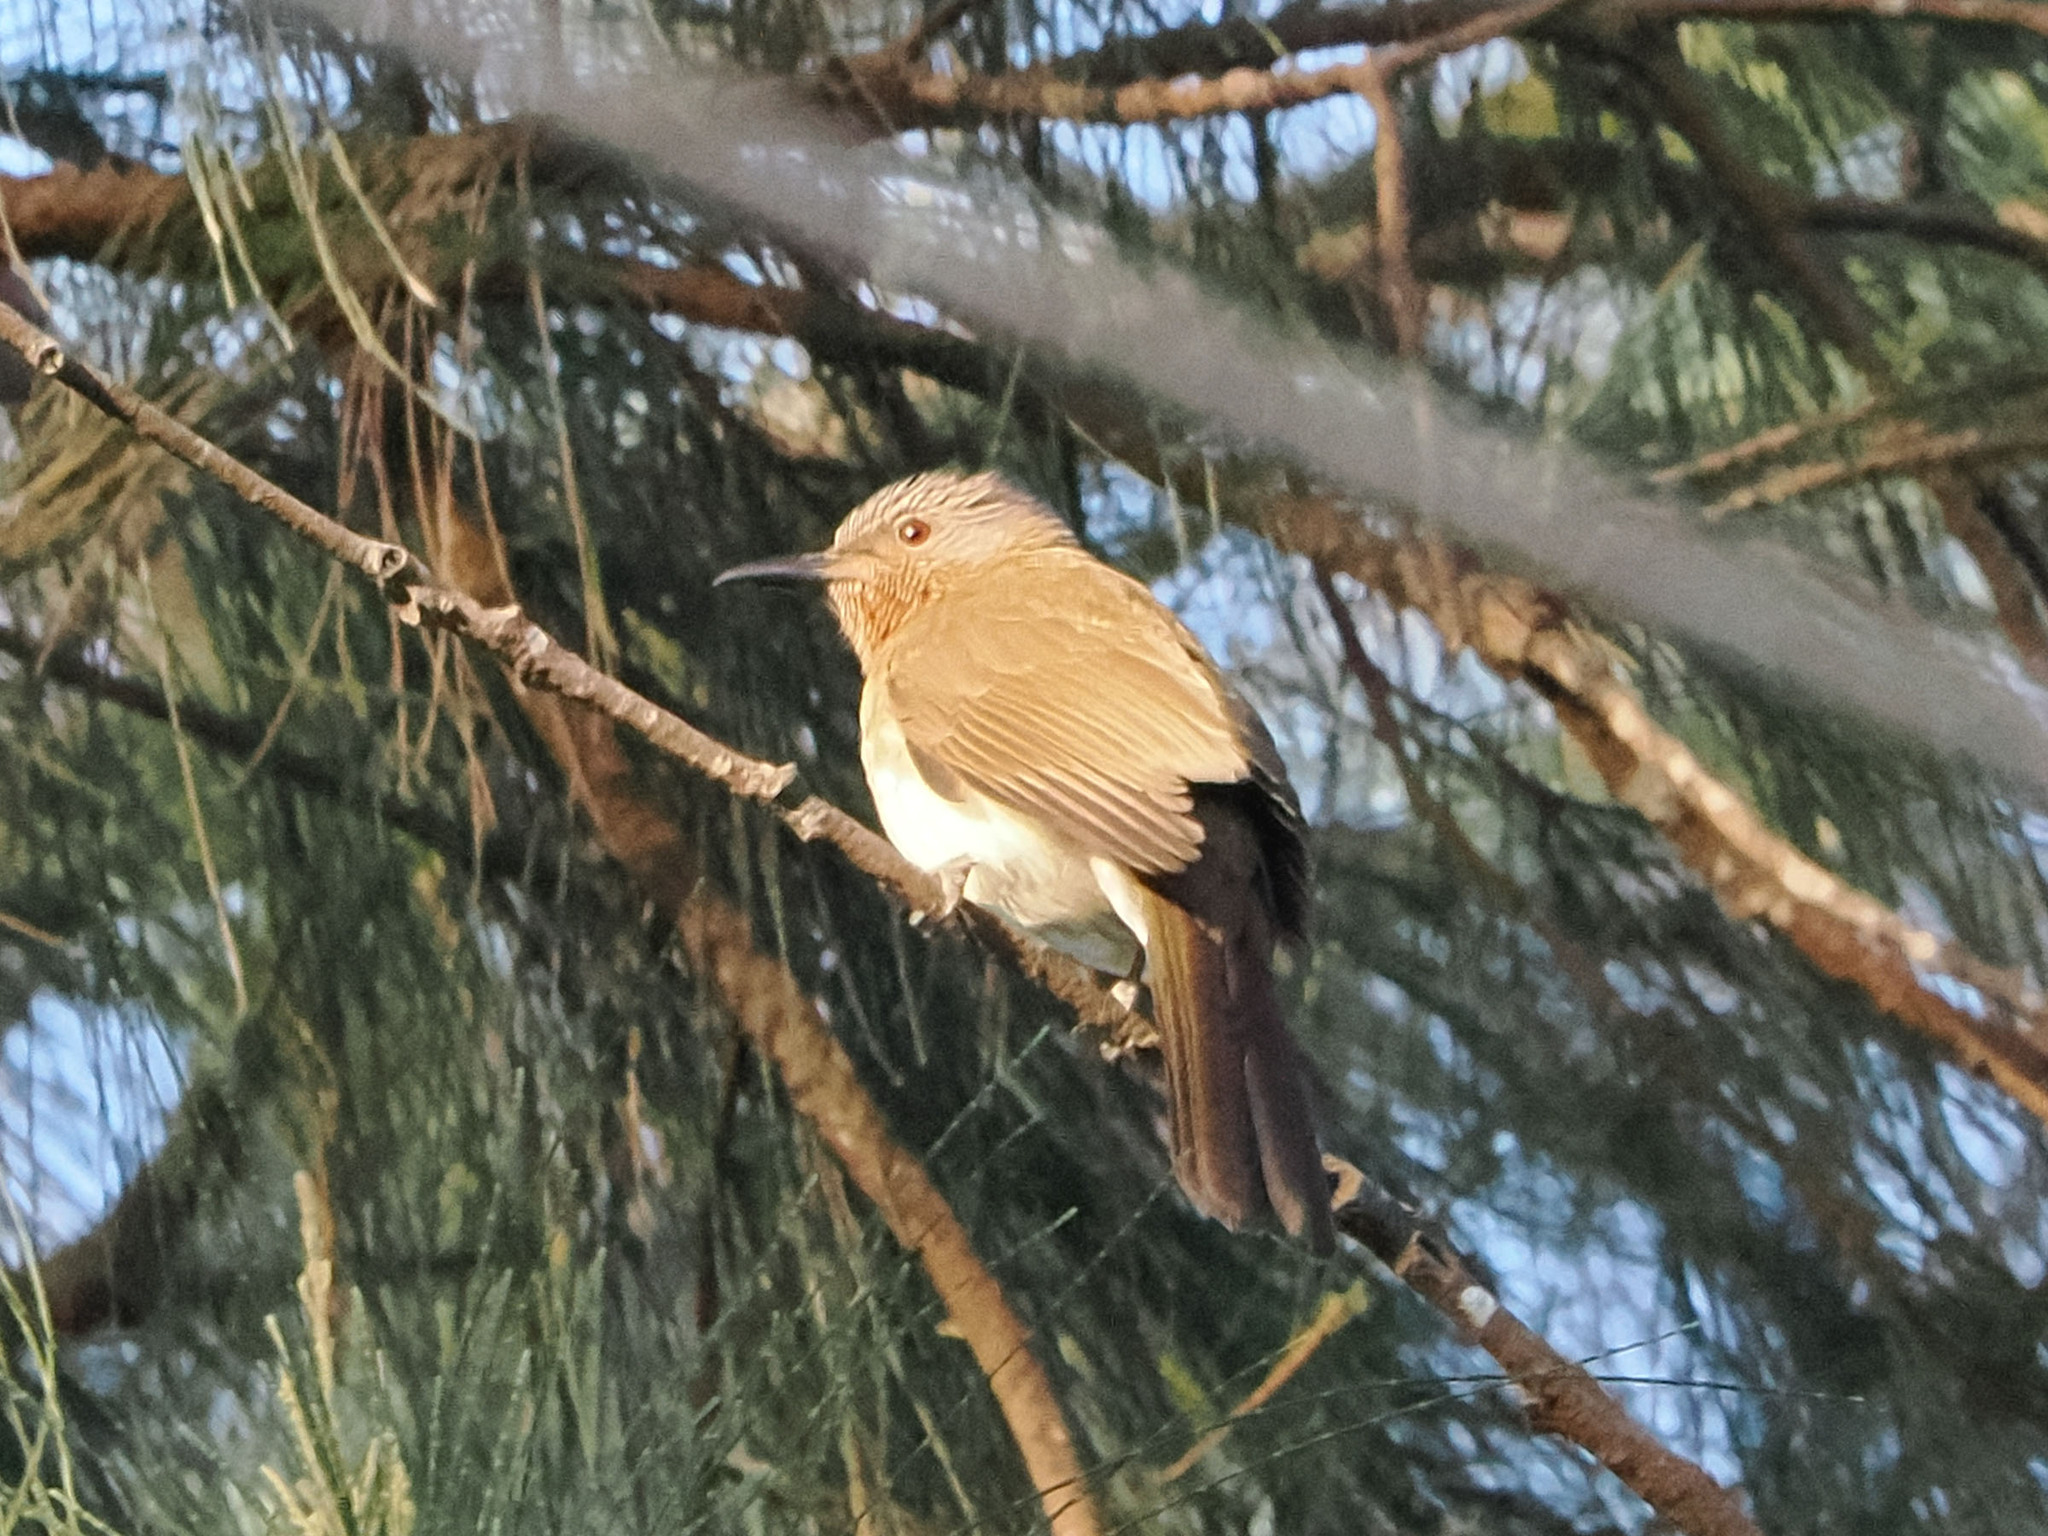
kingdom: Animalia
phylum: Chordata
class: Aves
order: Passeriformes
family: Pycnonotidae
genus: Hypsipetes
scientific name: Hypsipetes philippinus
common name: Philippine bulbul
